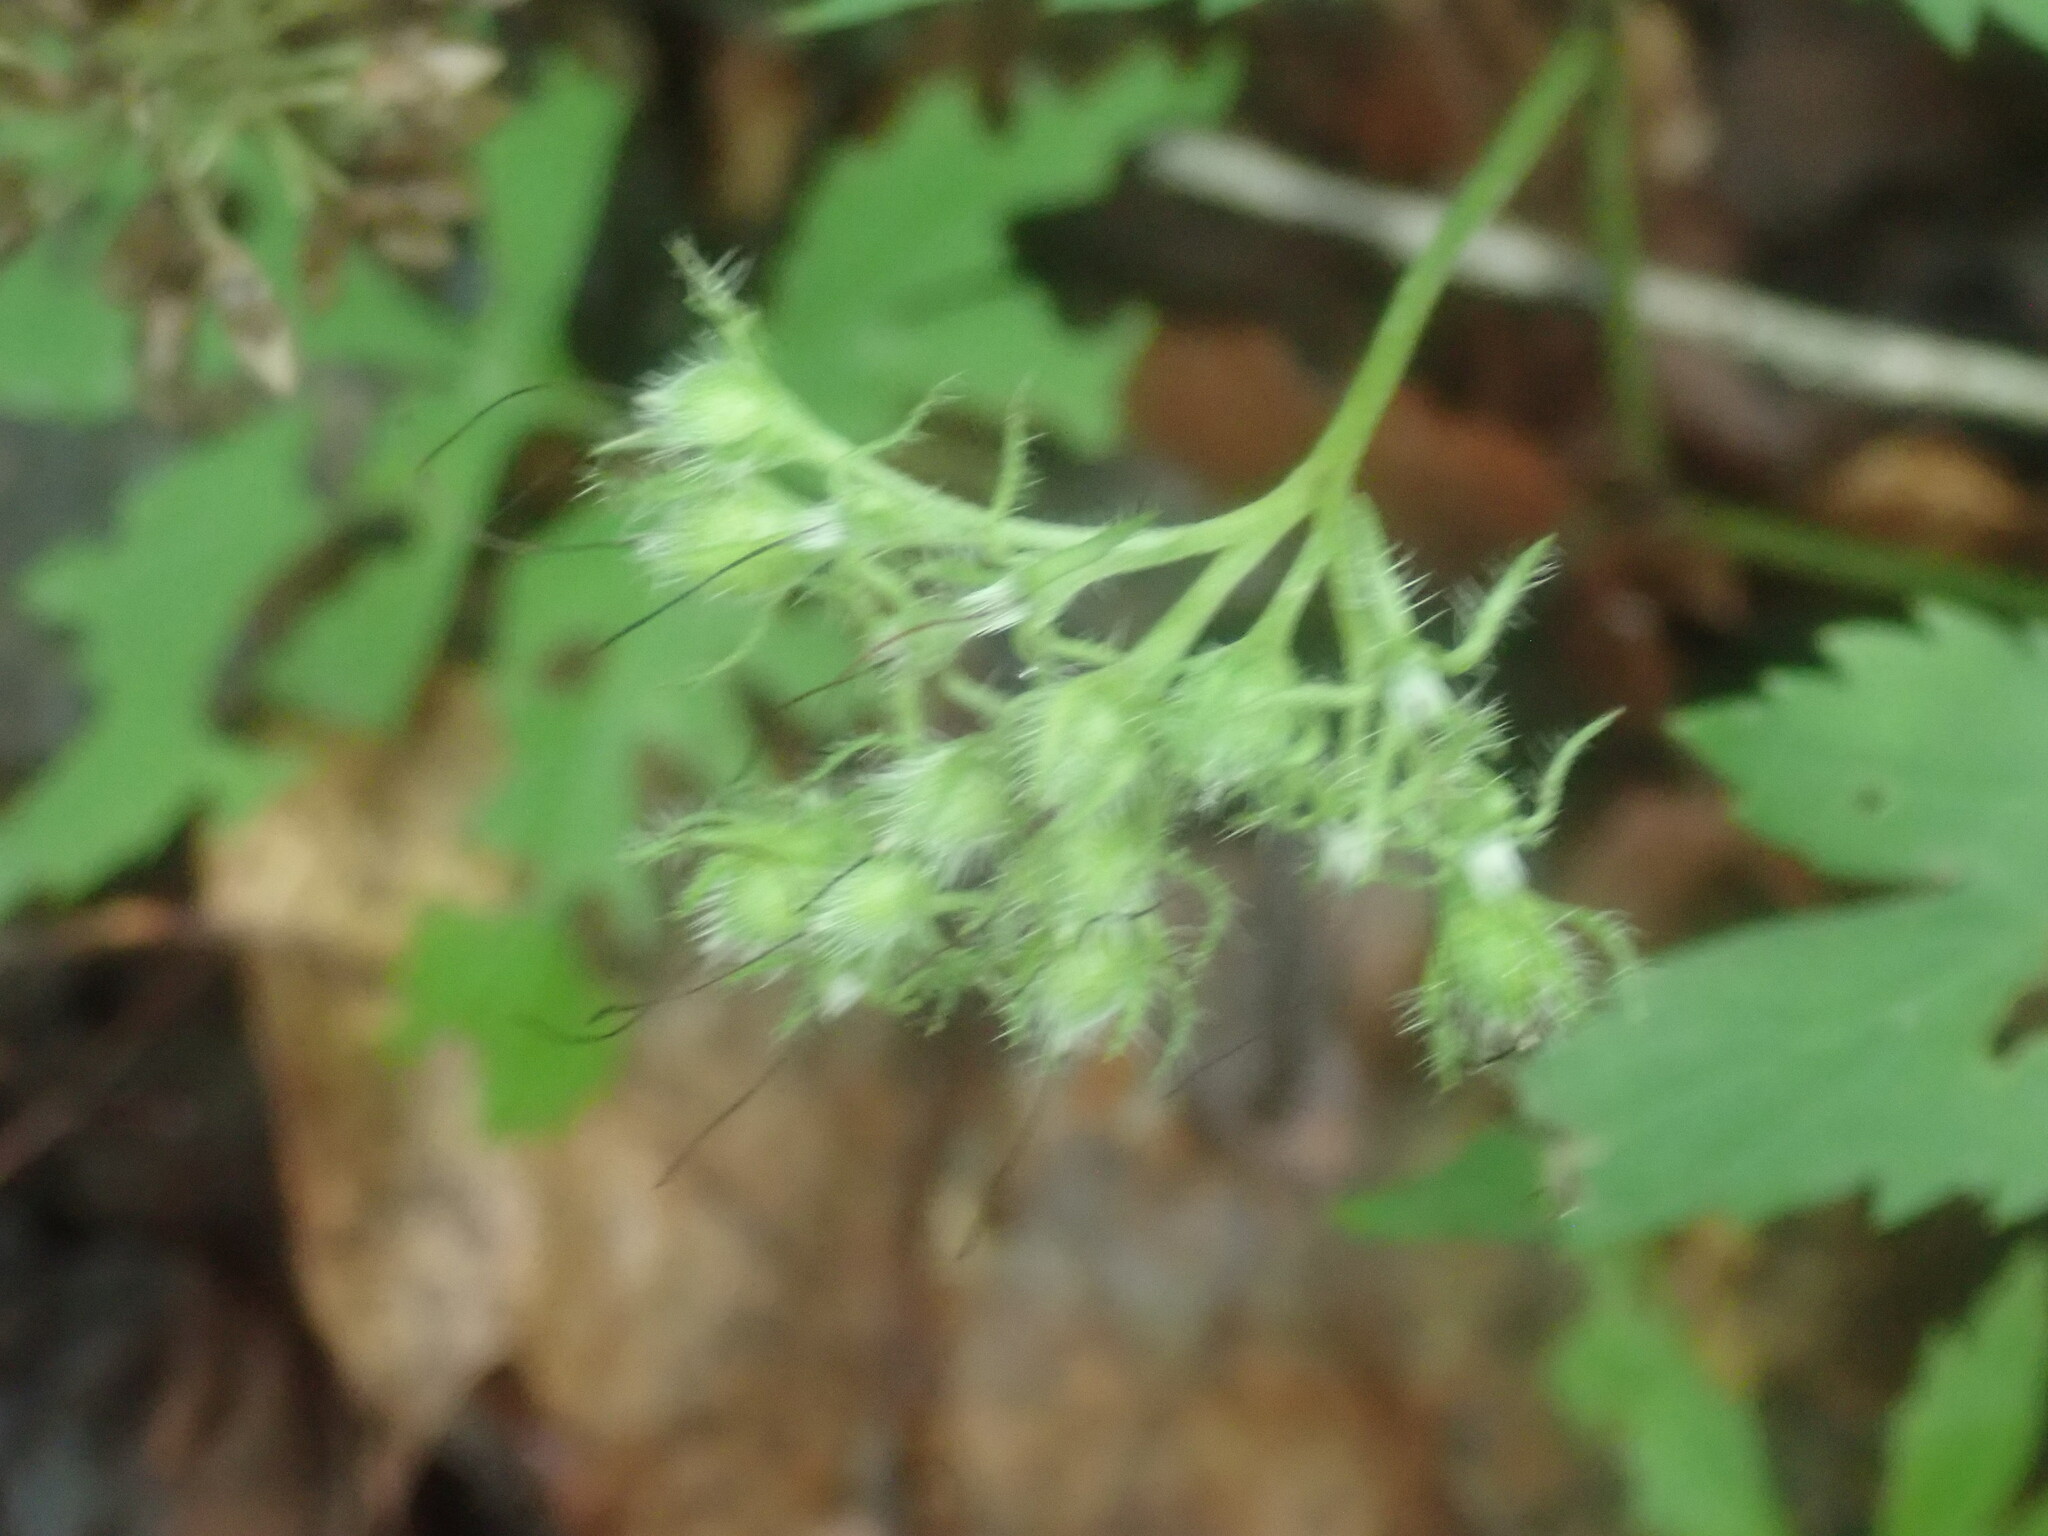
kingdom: Plantae
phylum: Tracheophyta
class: Magnoliopsida
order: Boraginales
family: Hydrophyllaceae
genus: Hydrophyllum
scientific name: Hydrophyllum virginianum
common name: Virginia waterleaf
